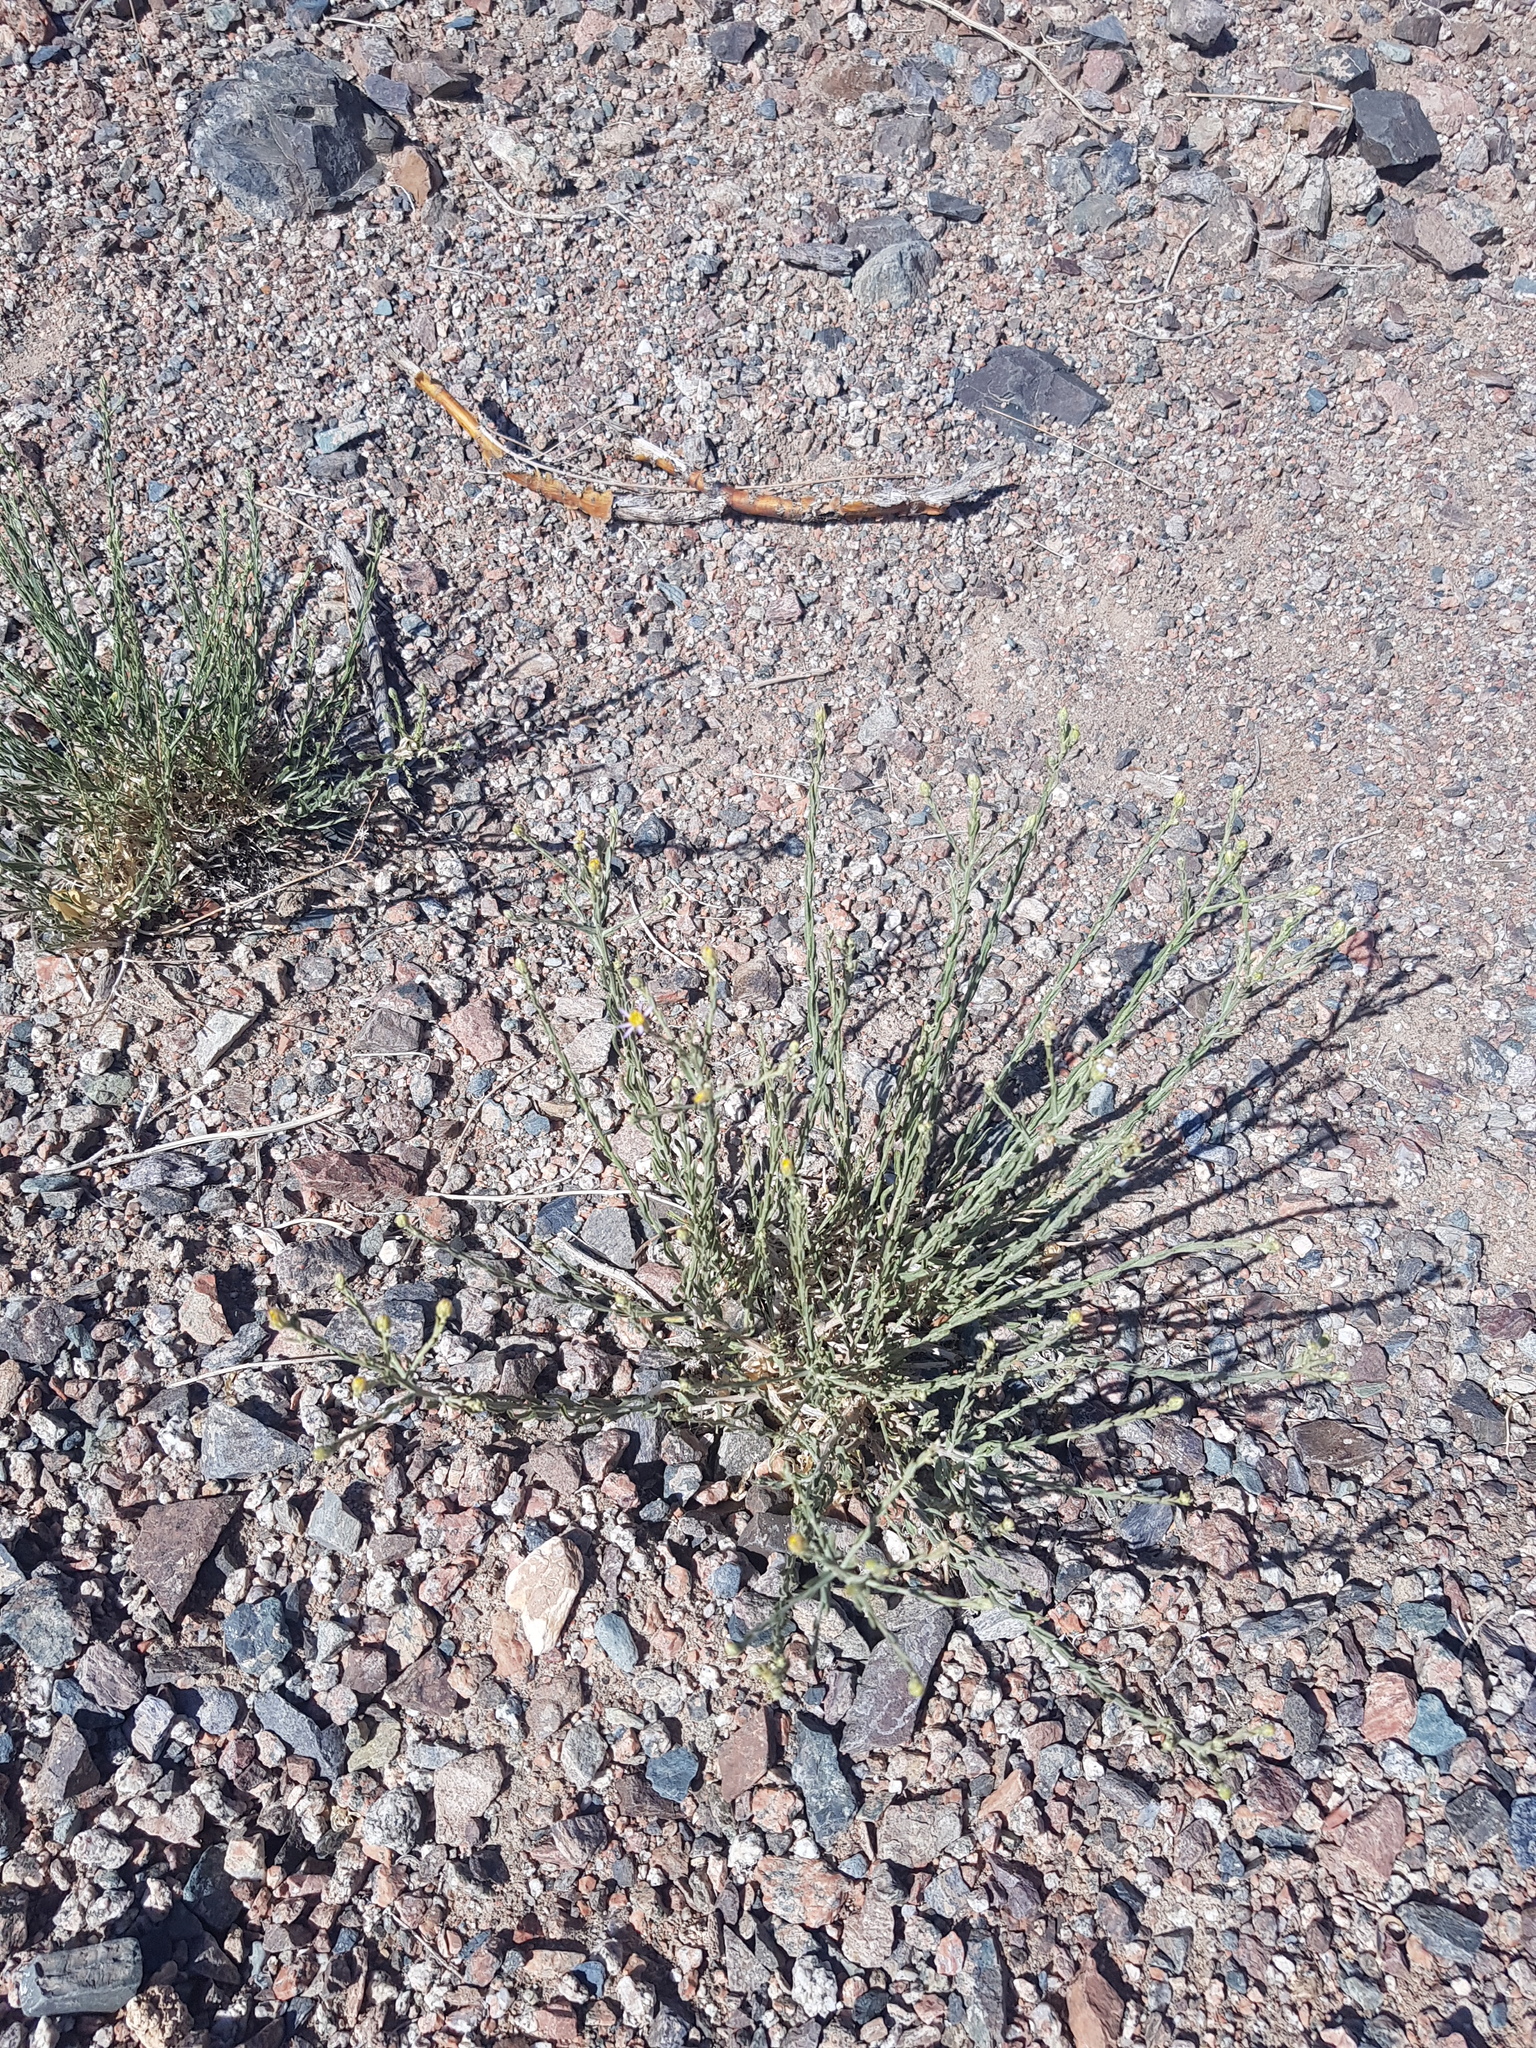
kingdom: Plantae
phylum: Tracheophyta
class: Magnoliopsida
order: Asterales
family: Asteraceae
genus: Asterothamnus
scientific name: Asterothamnus molliusculus
